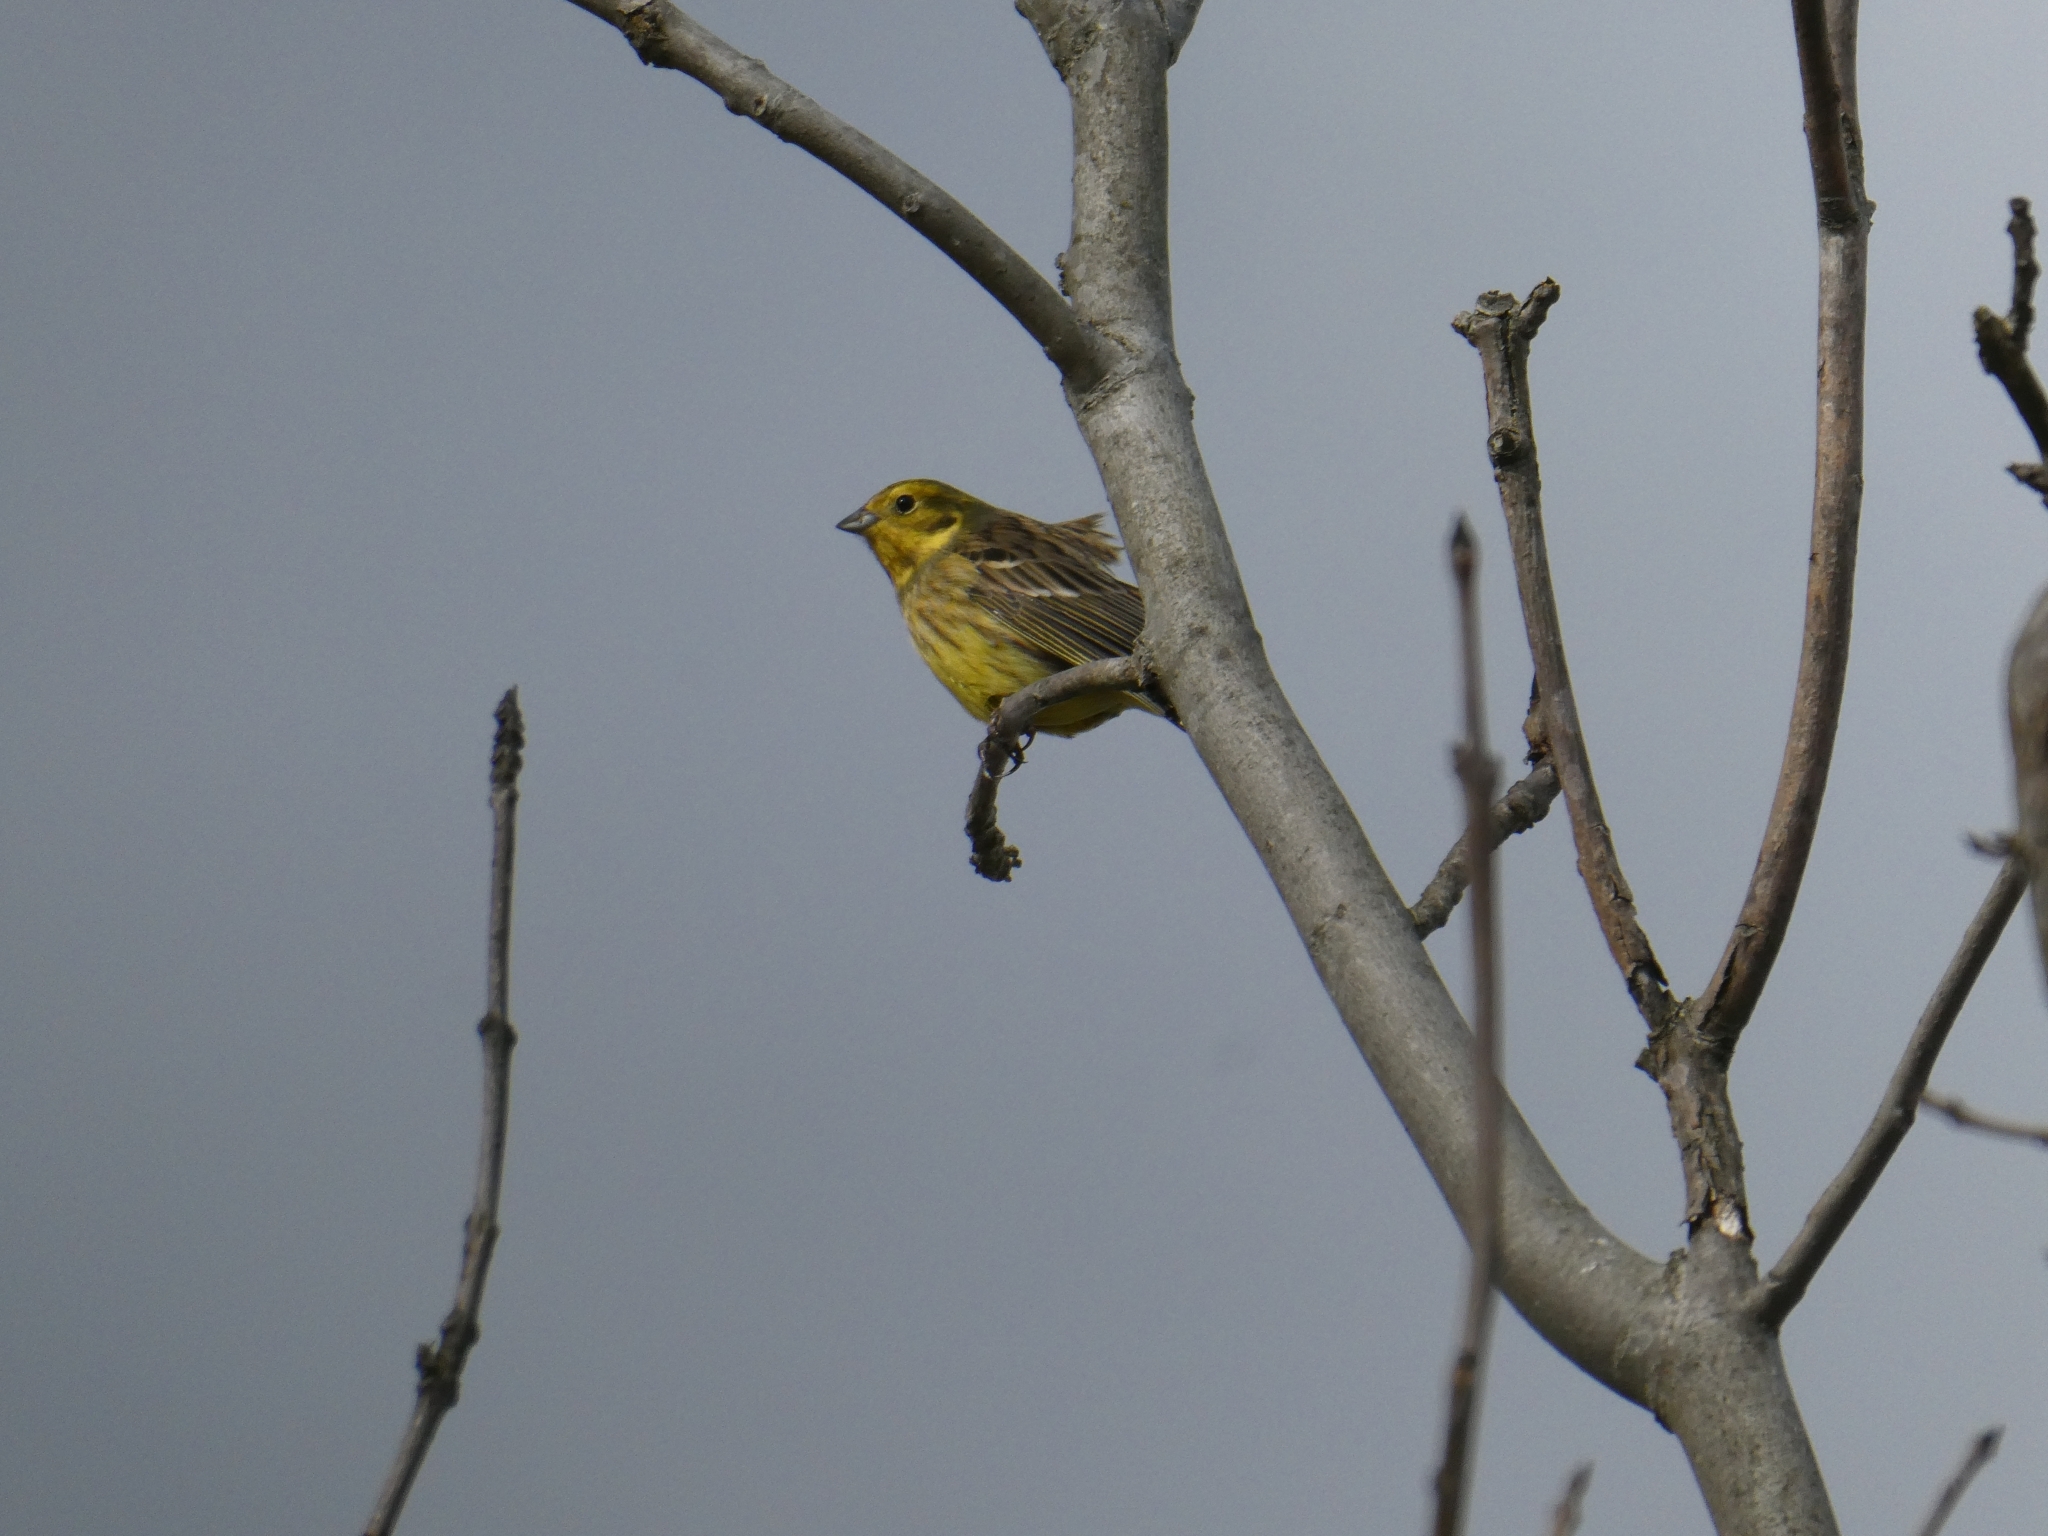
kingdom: Animalia
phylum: Chordata
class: Aves
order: Passeriformes
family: Emberizidae
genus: Emberiza
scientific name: Emberiza citrinella
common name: Yellowhammer
